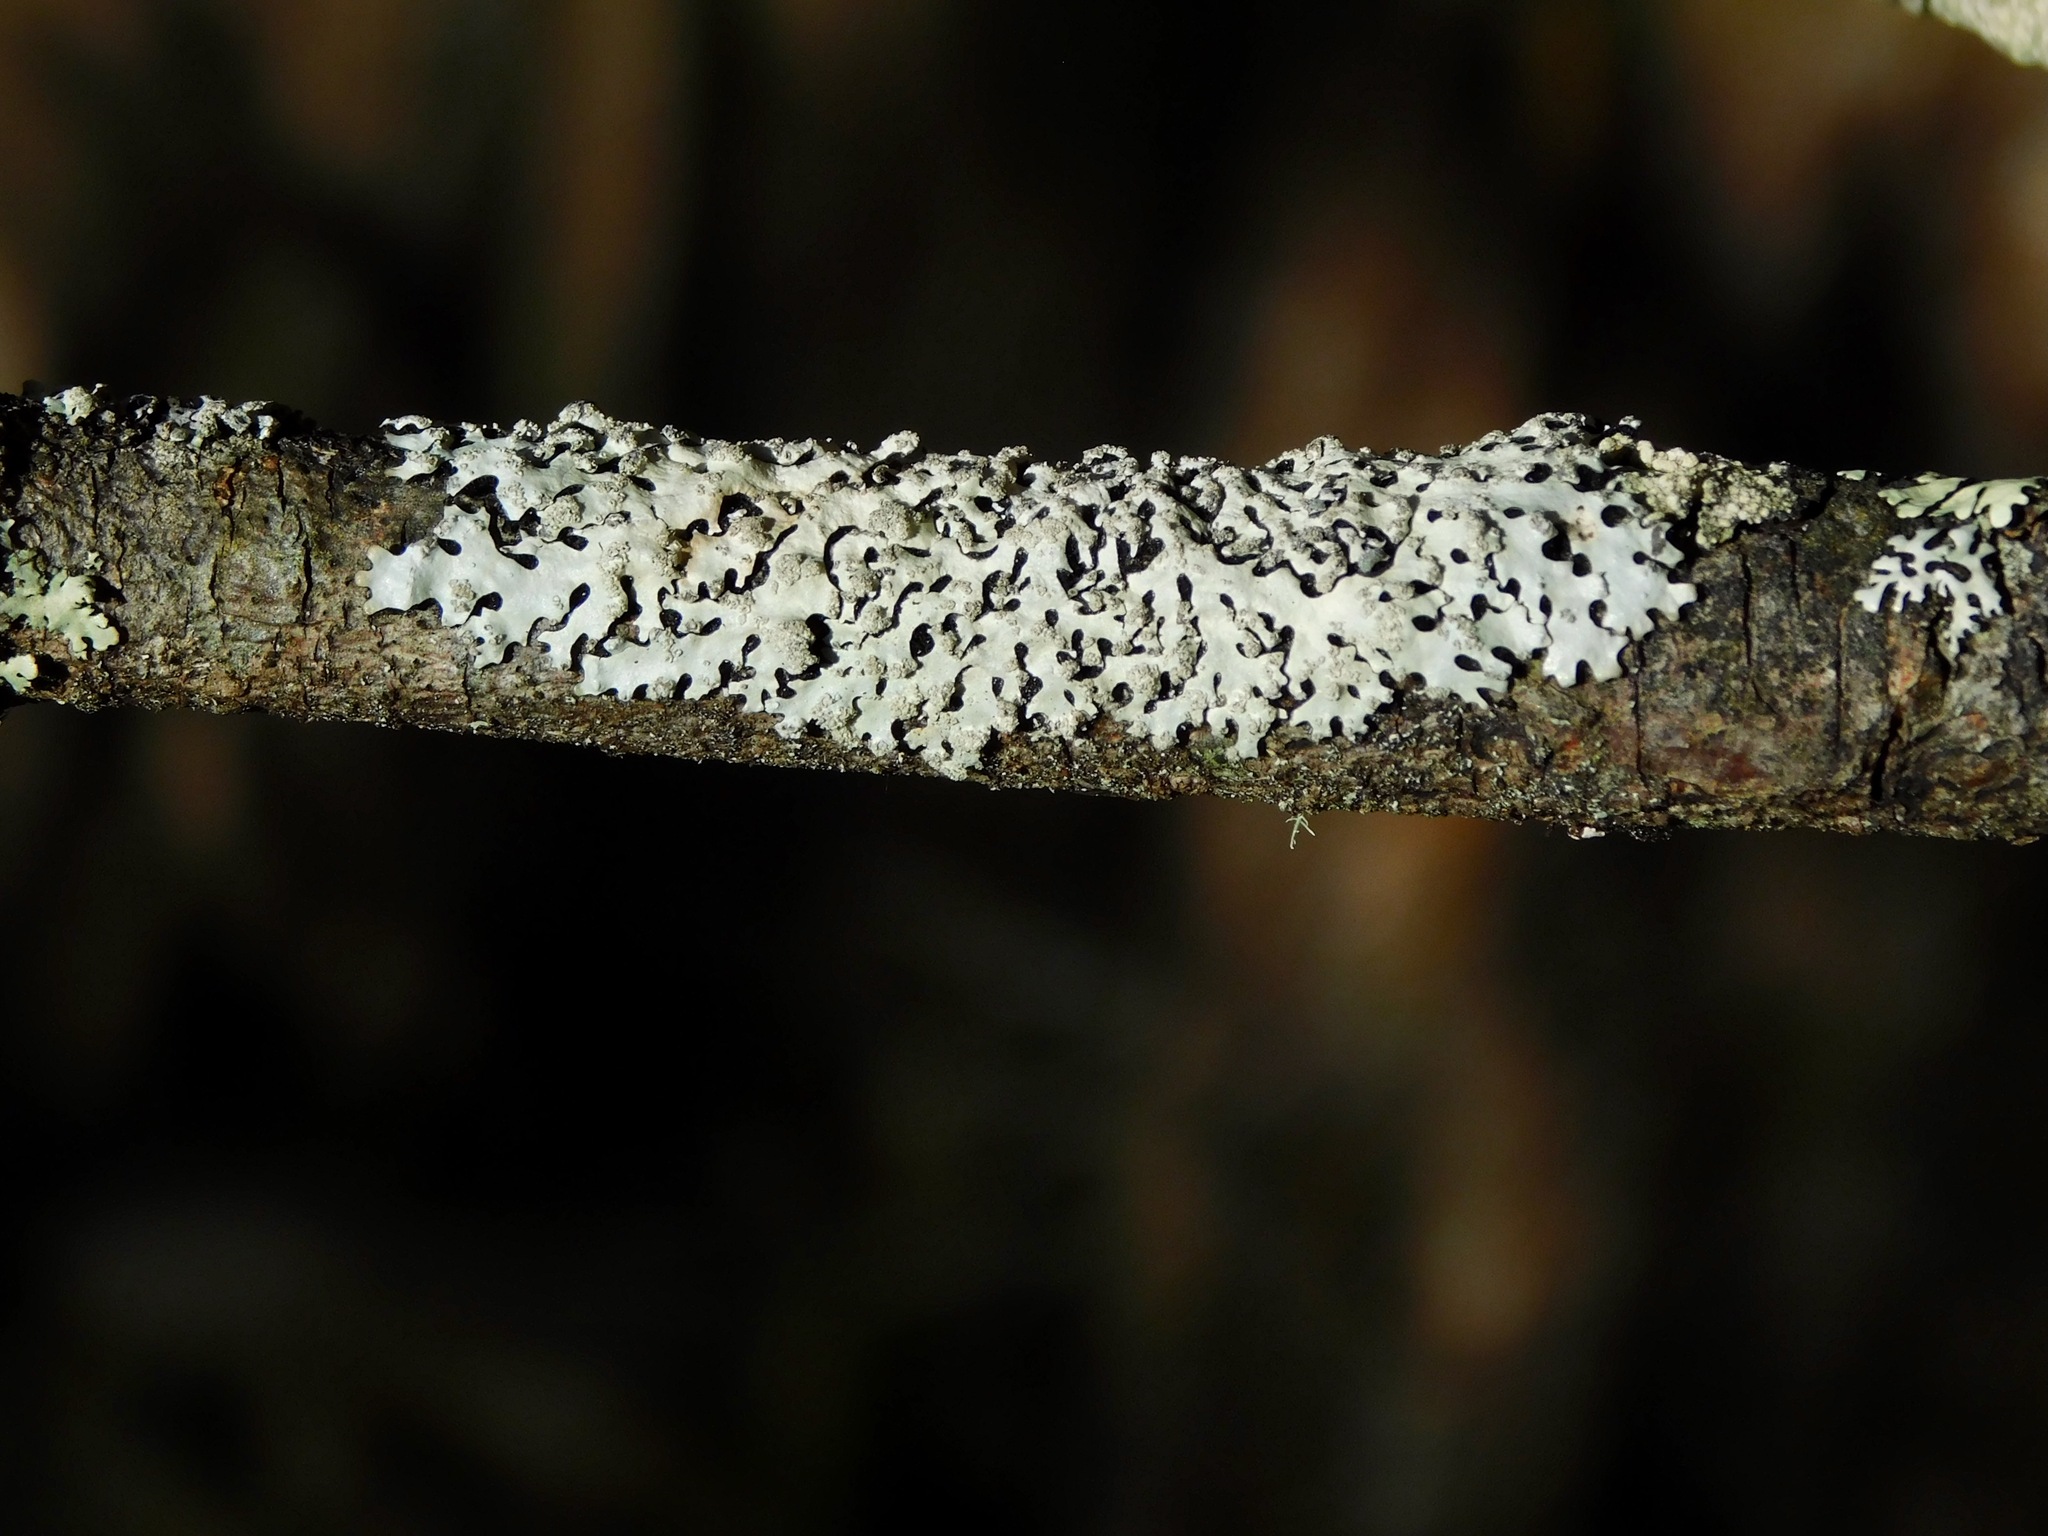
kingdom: Fungi
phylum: Ascomycota
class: Lecanoromycetes
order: Lecanorales
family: Parmeliaceae
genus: Hypotrachyna
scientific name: Hypotrachyna lividescens
